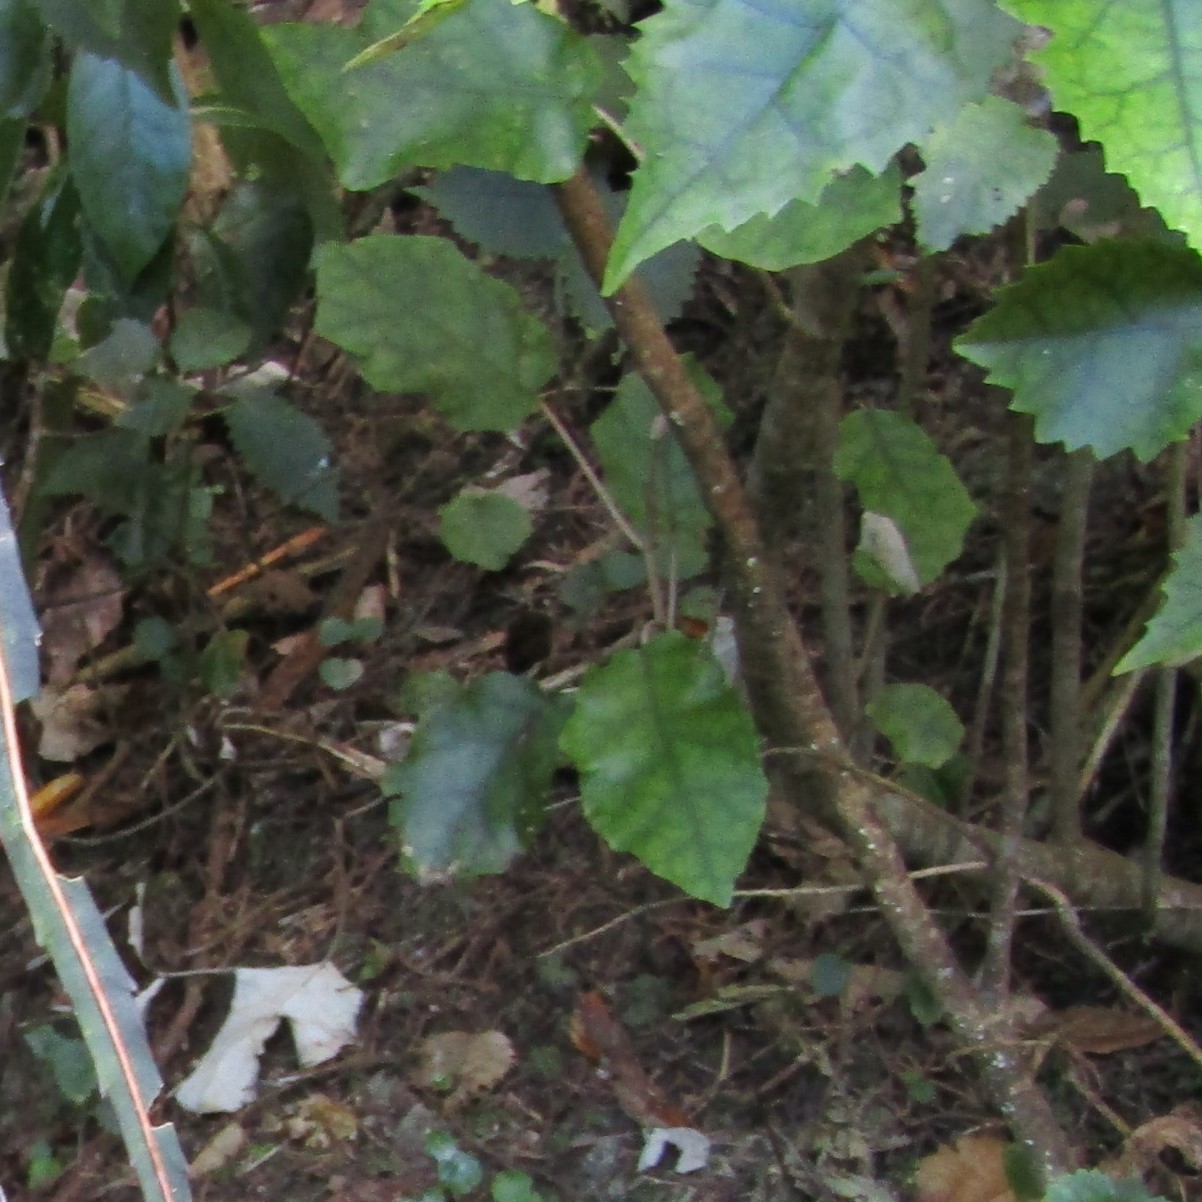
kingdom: Plantae
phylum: Tracheophyta
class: Magnoliopsida
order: Asterales
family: Asteraceae
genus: Brachyglottis
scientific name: Brachyglottis repanda
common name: Hedge ragwort
